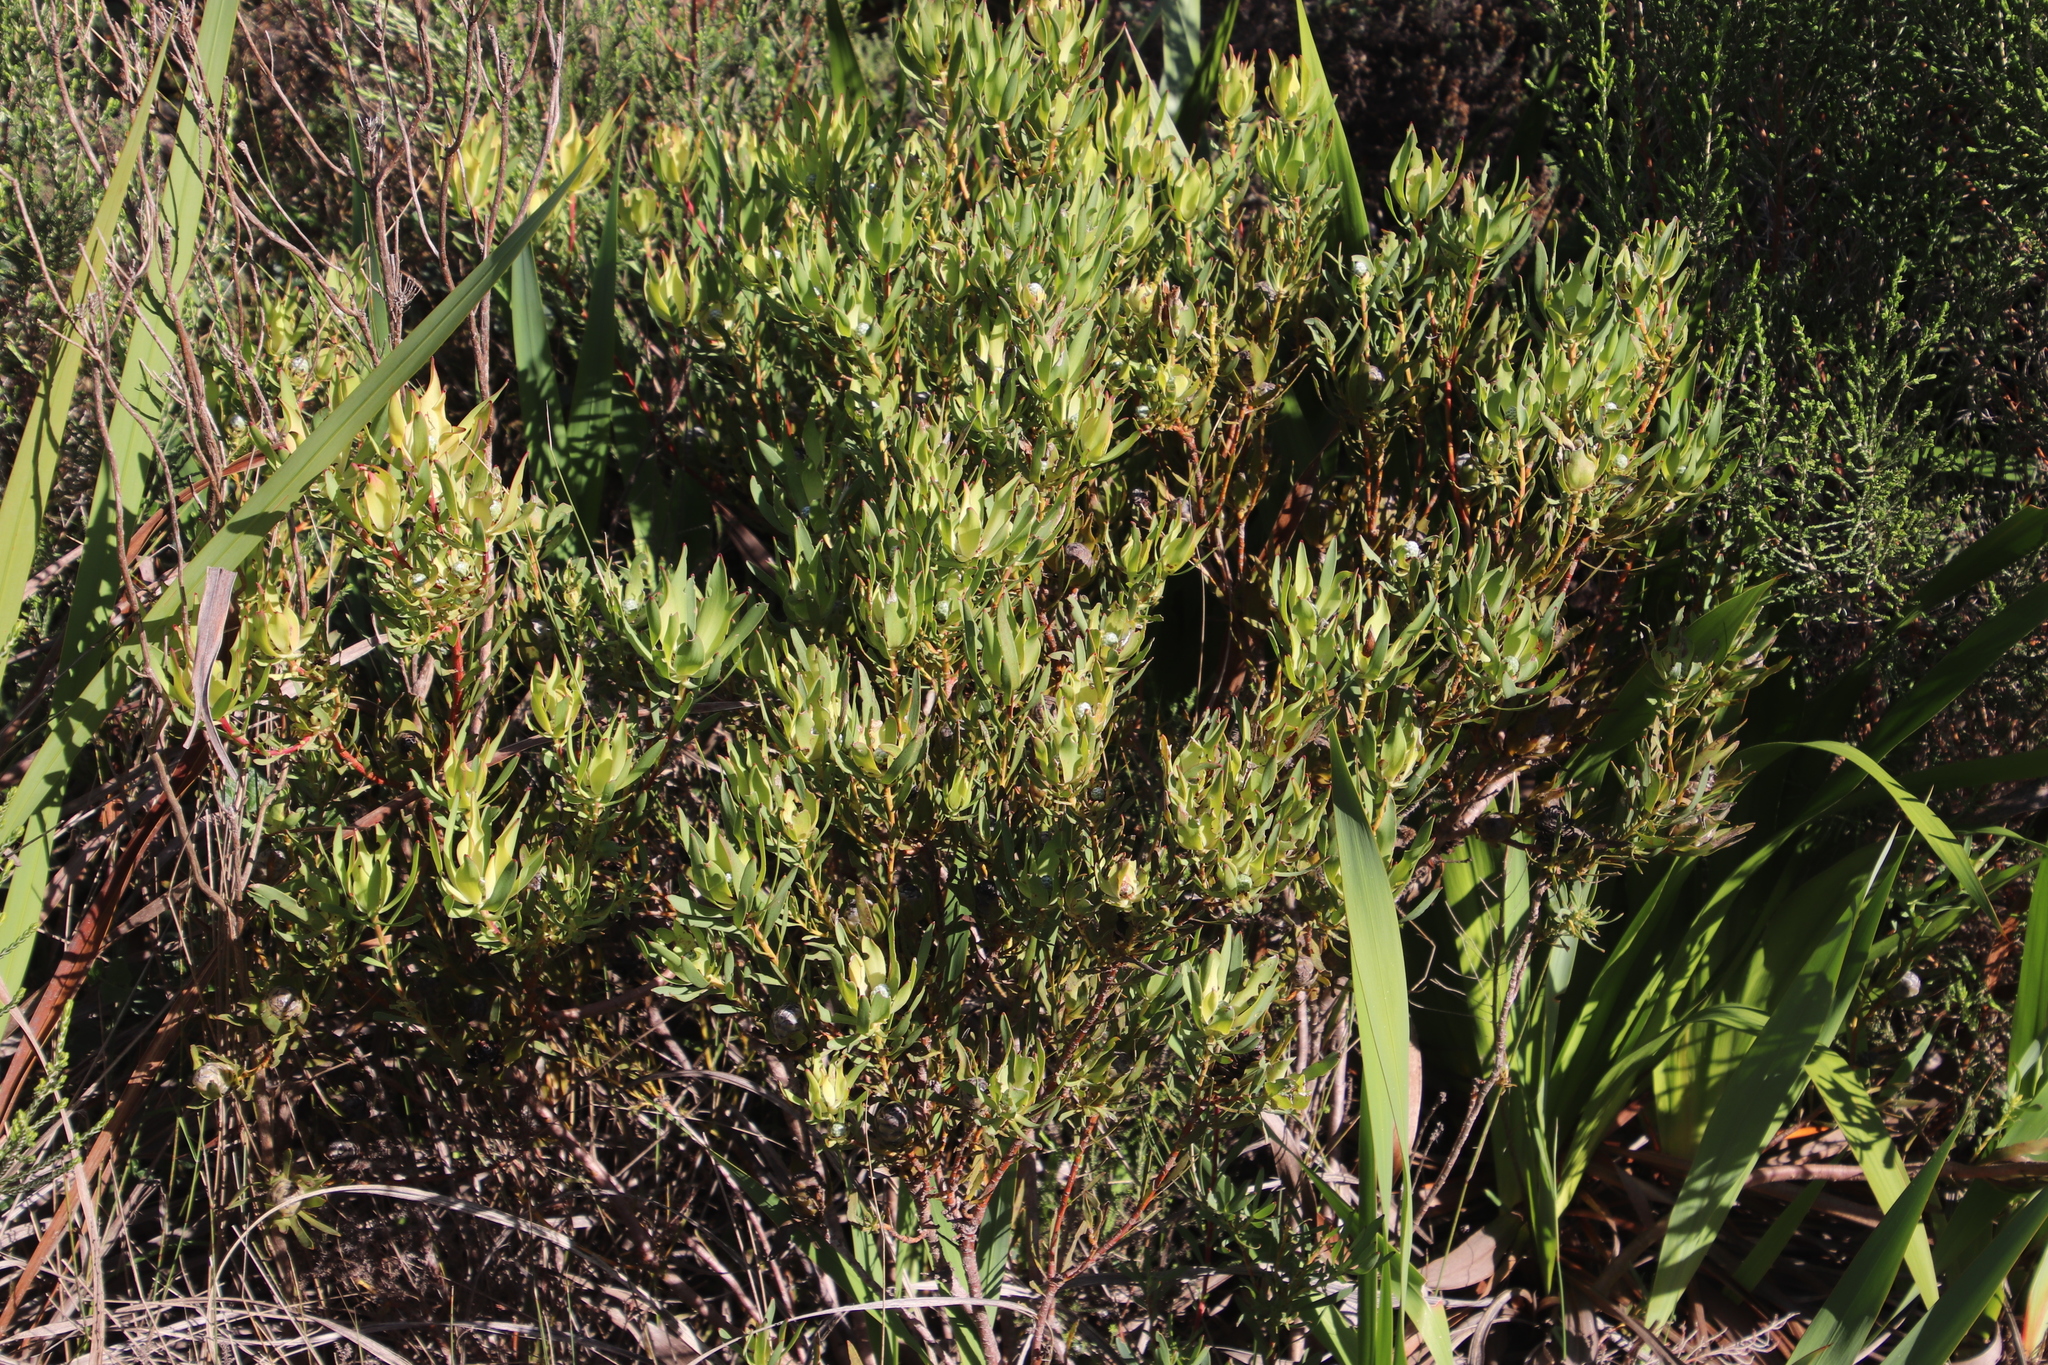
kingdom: Plantae
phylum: Tracheophyta
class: Magnoliopsida
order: Proteales
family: Proteaceae
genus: Leucadendron
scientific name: Leucadendron salignum
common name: Common sunshine conebush
